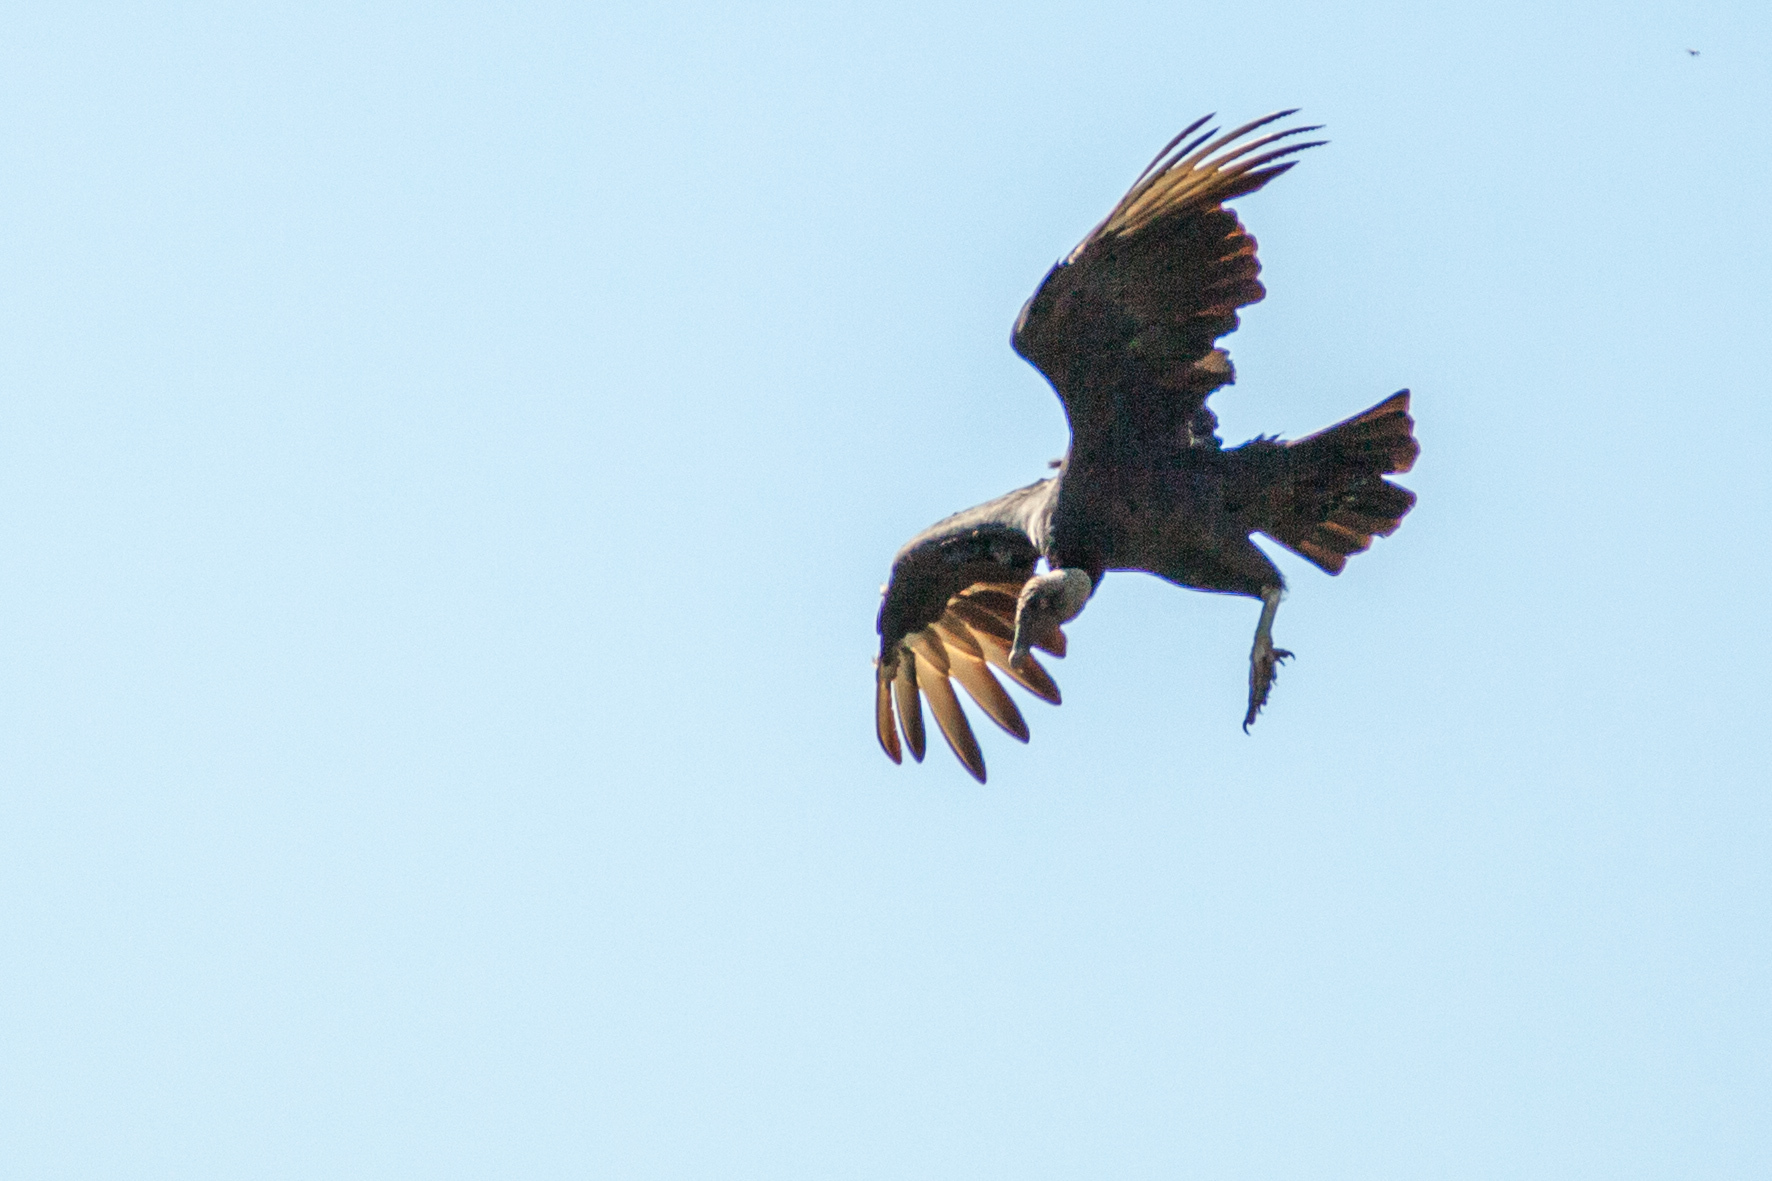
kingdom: Animalia
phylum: Chordata
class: Aves
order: Accipitriformes
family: Cathartidae
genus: Coragyps
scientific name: Coragyps atratus
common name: Black vulture
